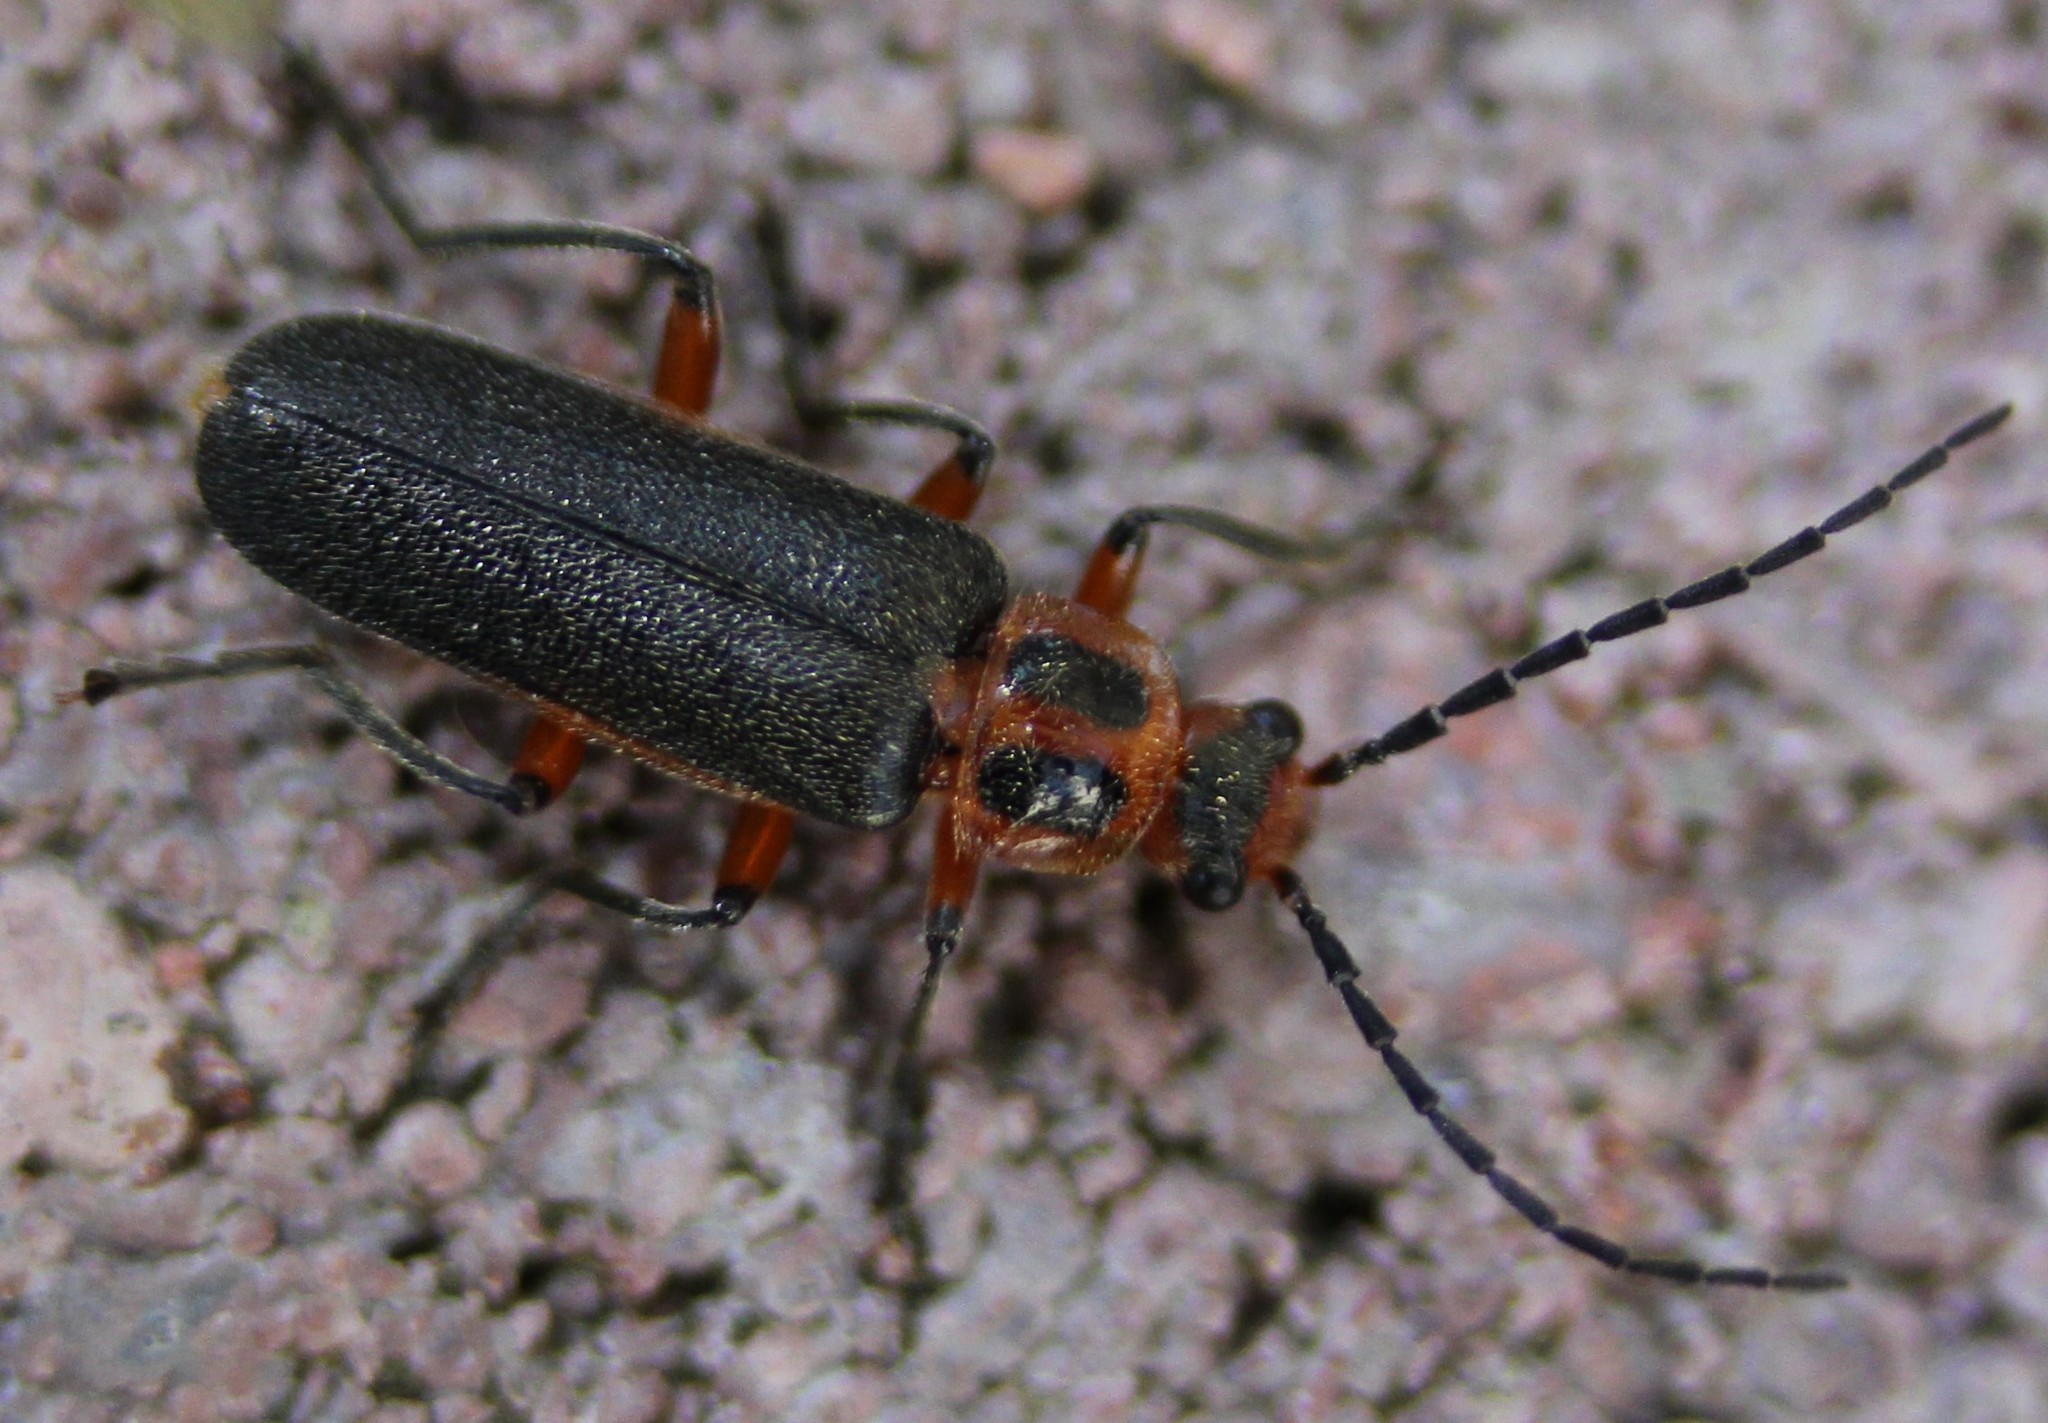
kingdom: Animalia
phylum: Arthropoda
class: Insecta
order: Coleoptera
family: Cantharidae
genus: Atalantycha
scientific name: Atalantycha bilineata
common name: Two-lined leatherwing
